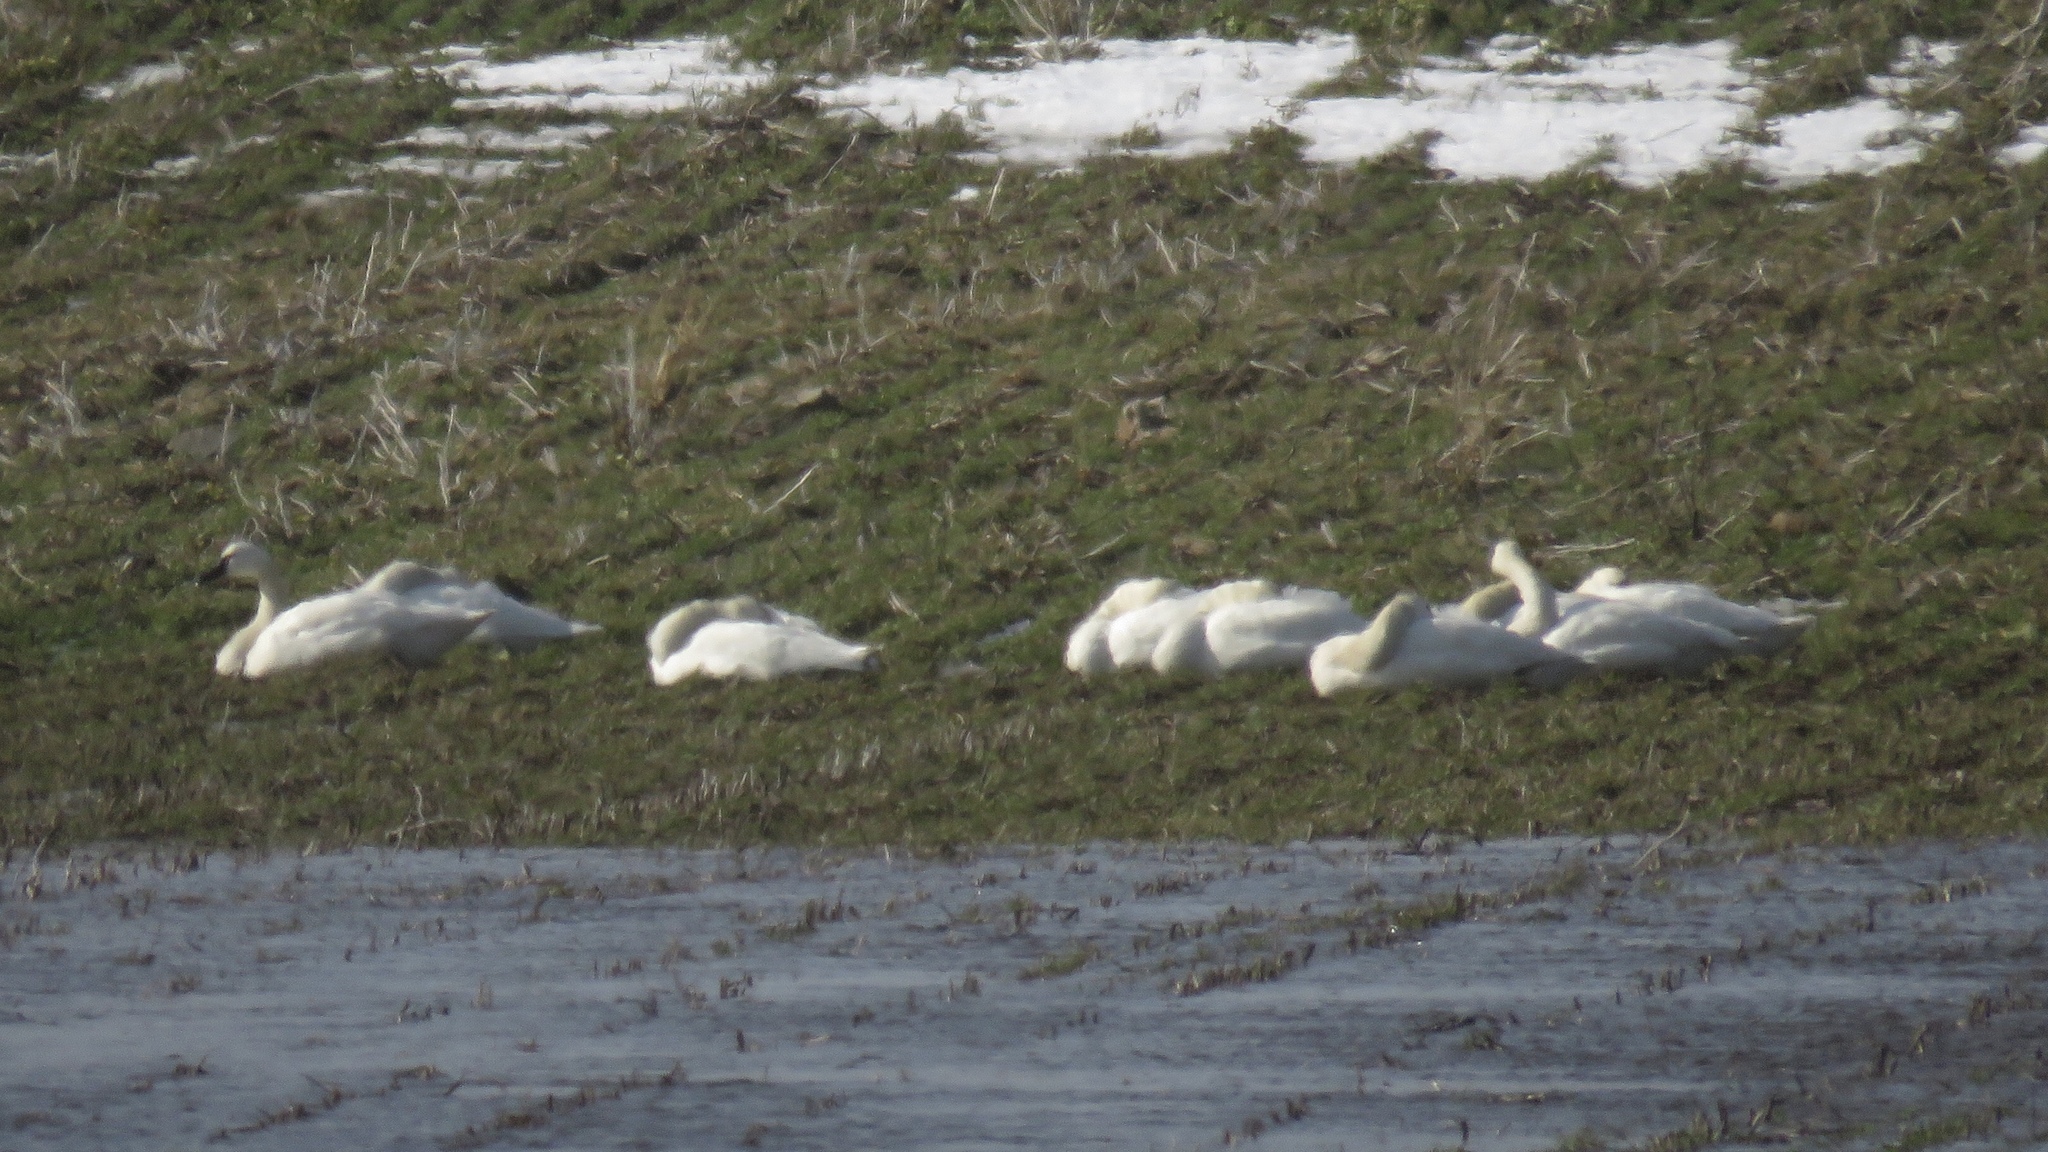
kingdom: Animalia
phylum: Chordata
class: Aves
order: Anseriformes
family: Anatidae
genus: Cygnus
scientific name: Cygnus columbianus
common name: Tundra swan
